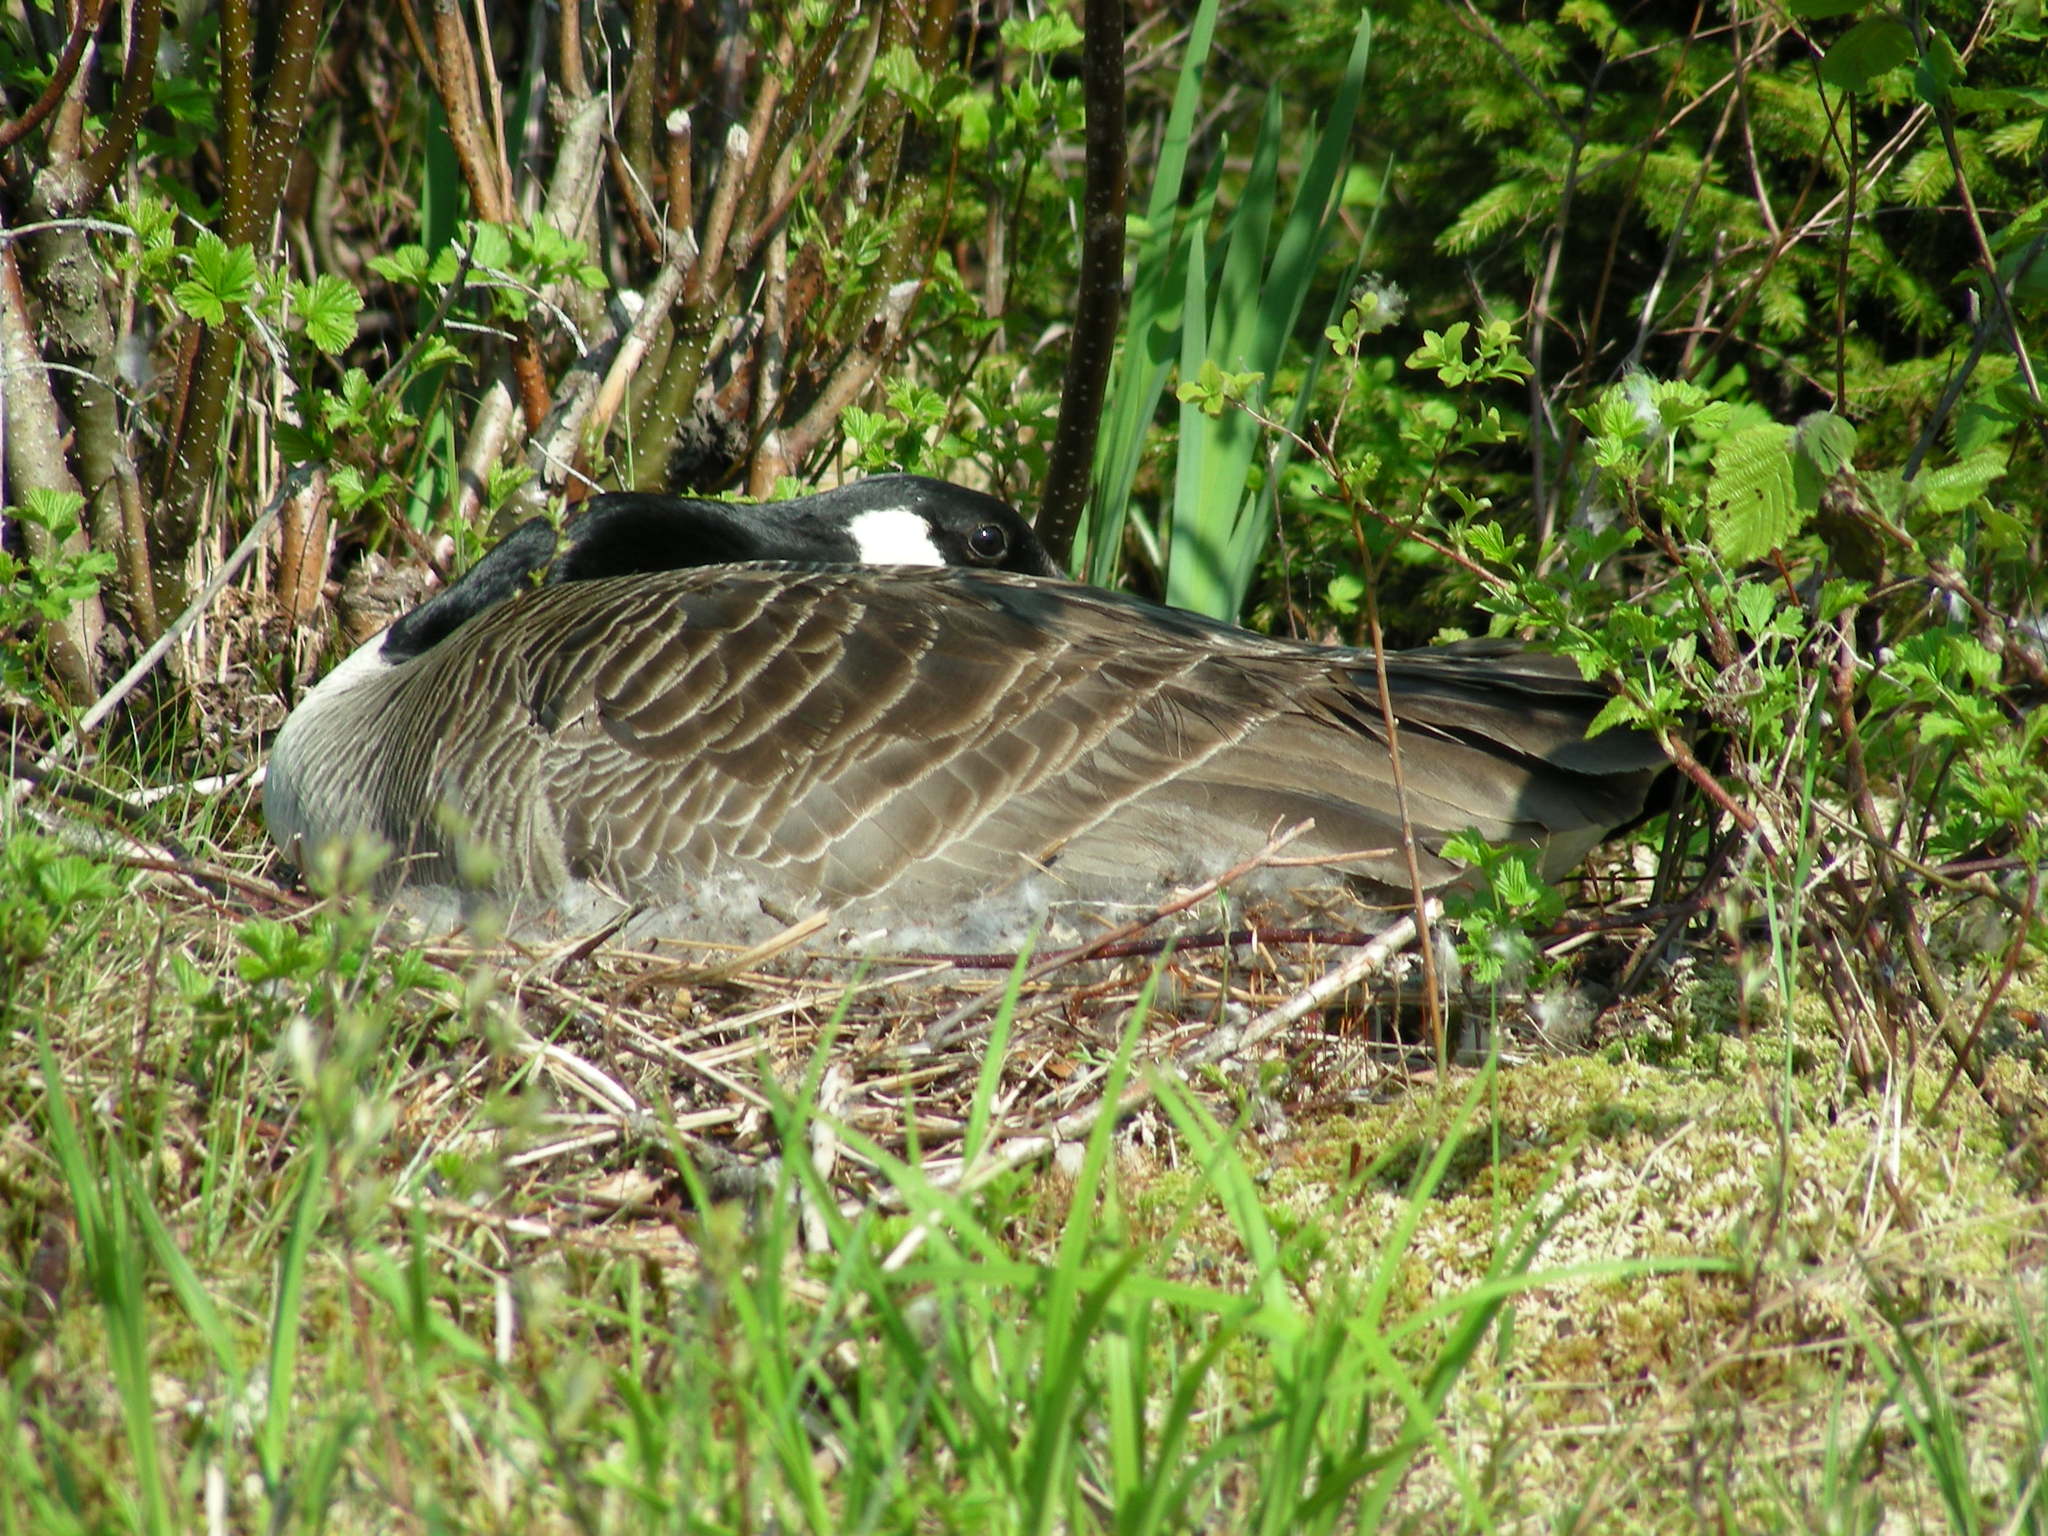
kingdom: Animalia
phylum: Chordata
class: Aves
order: Anseriformes
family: Anatidae
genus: Branta
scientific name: Branta canadensis
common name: Canada goose
